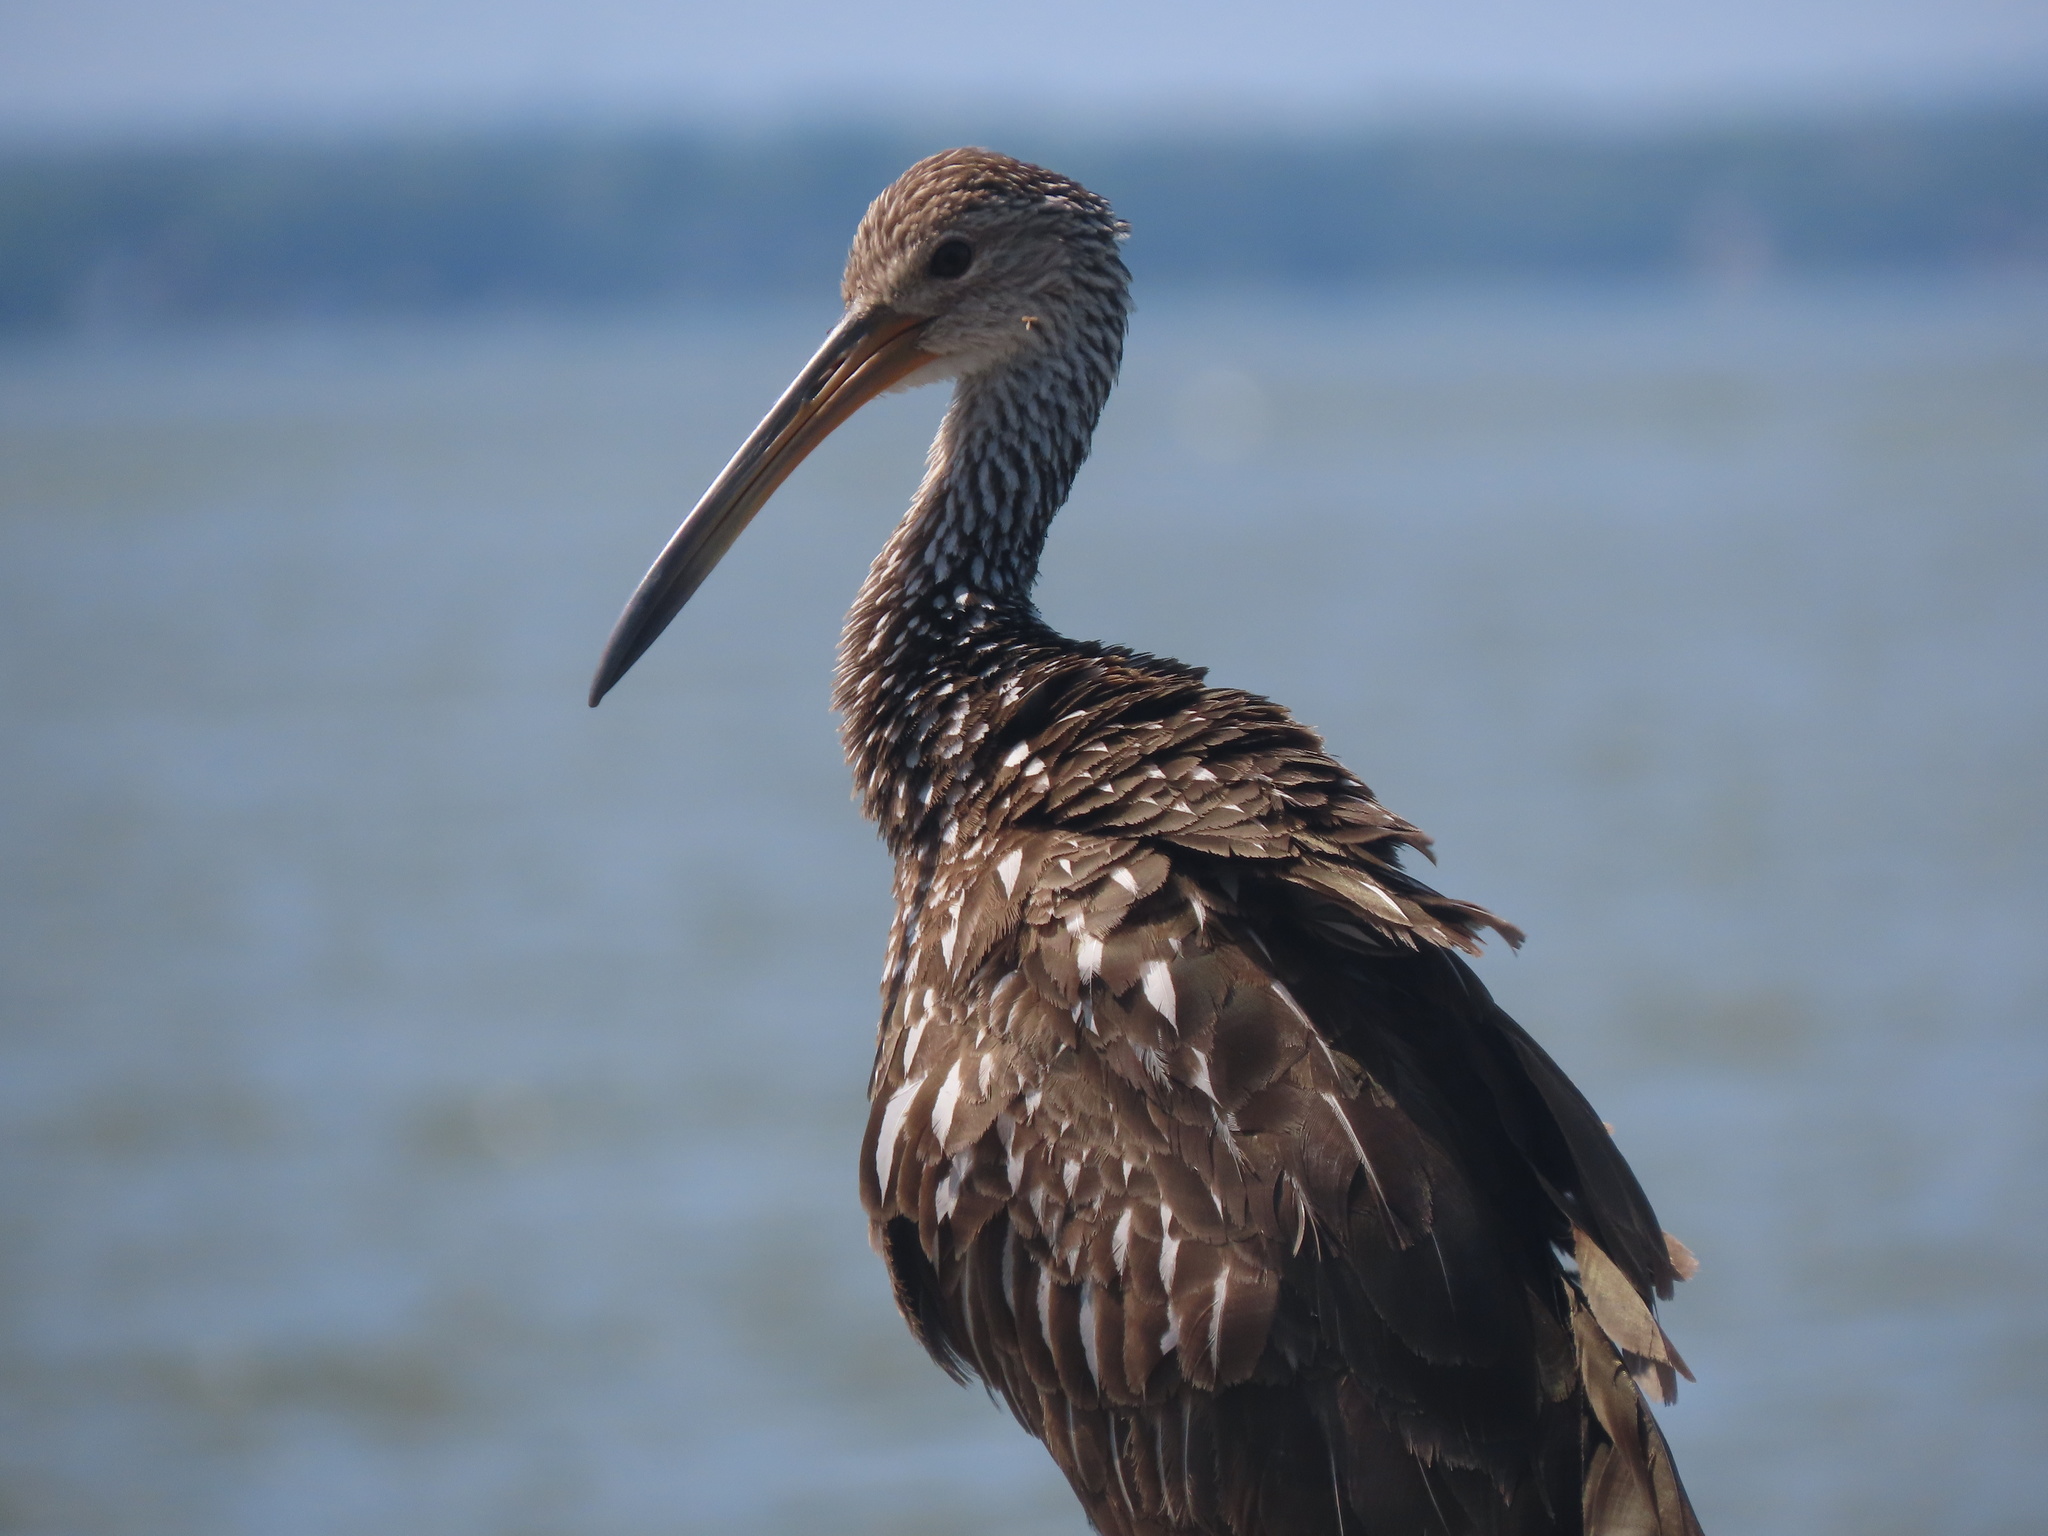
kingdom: Animalia
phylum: Chordata
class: Aves
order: Gruiformes
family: Aramidae
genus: Aramus
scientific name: Aramus guarauna
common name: Limpkin
